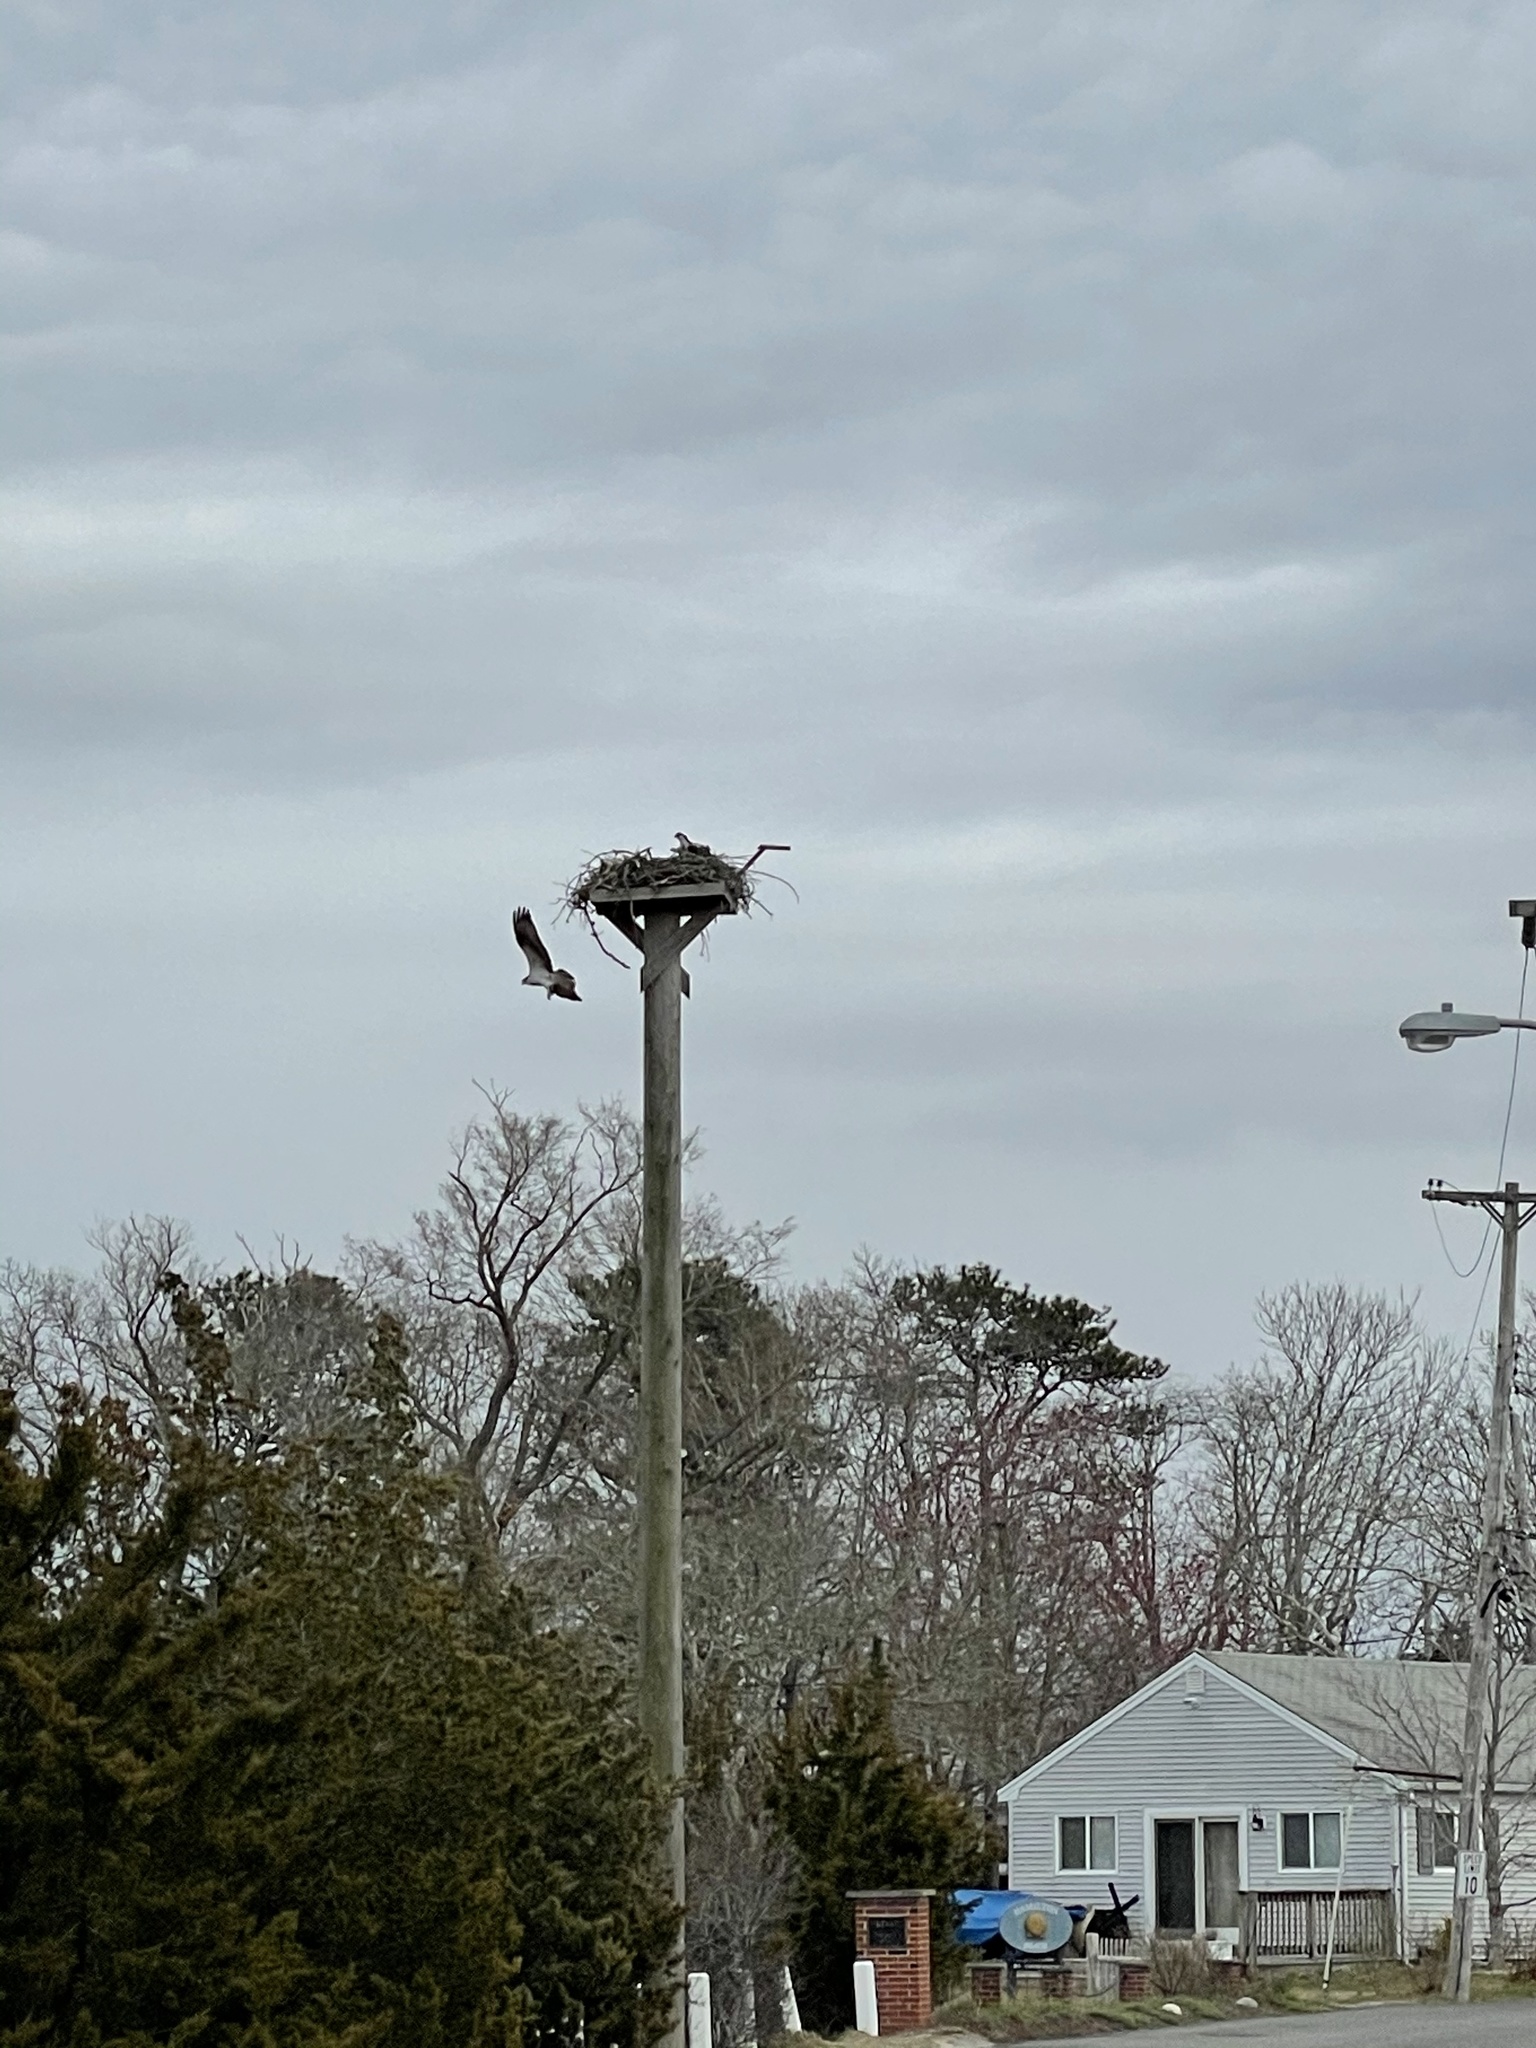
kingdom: Animalia
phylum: Chordata
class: Aves
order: Accipitriformes
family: Pandionidae
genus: Pandion
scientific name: Pandion haliaetus
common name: Osprey
